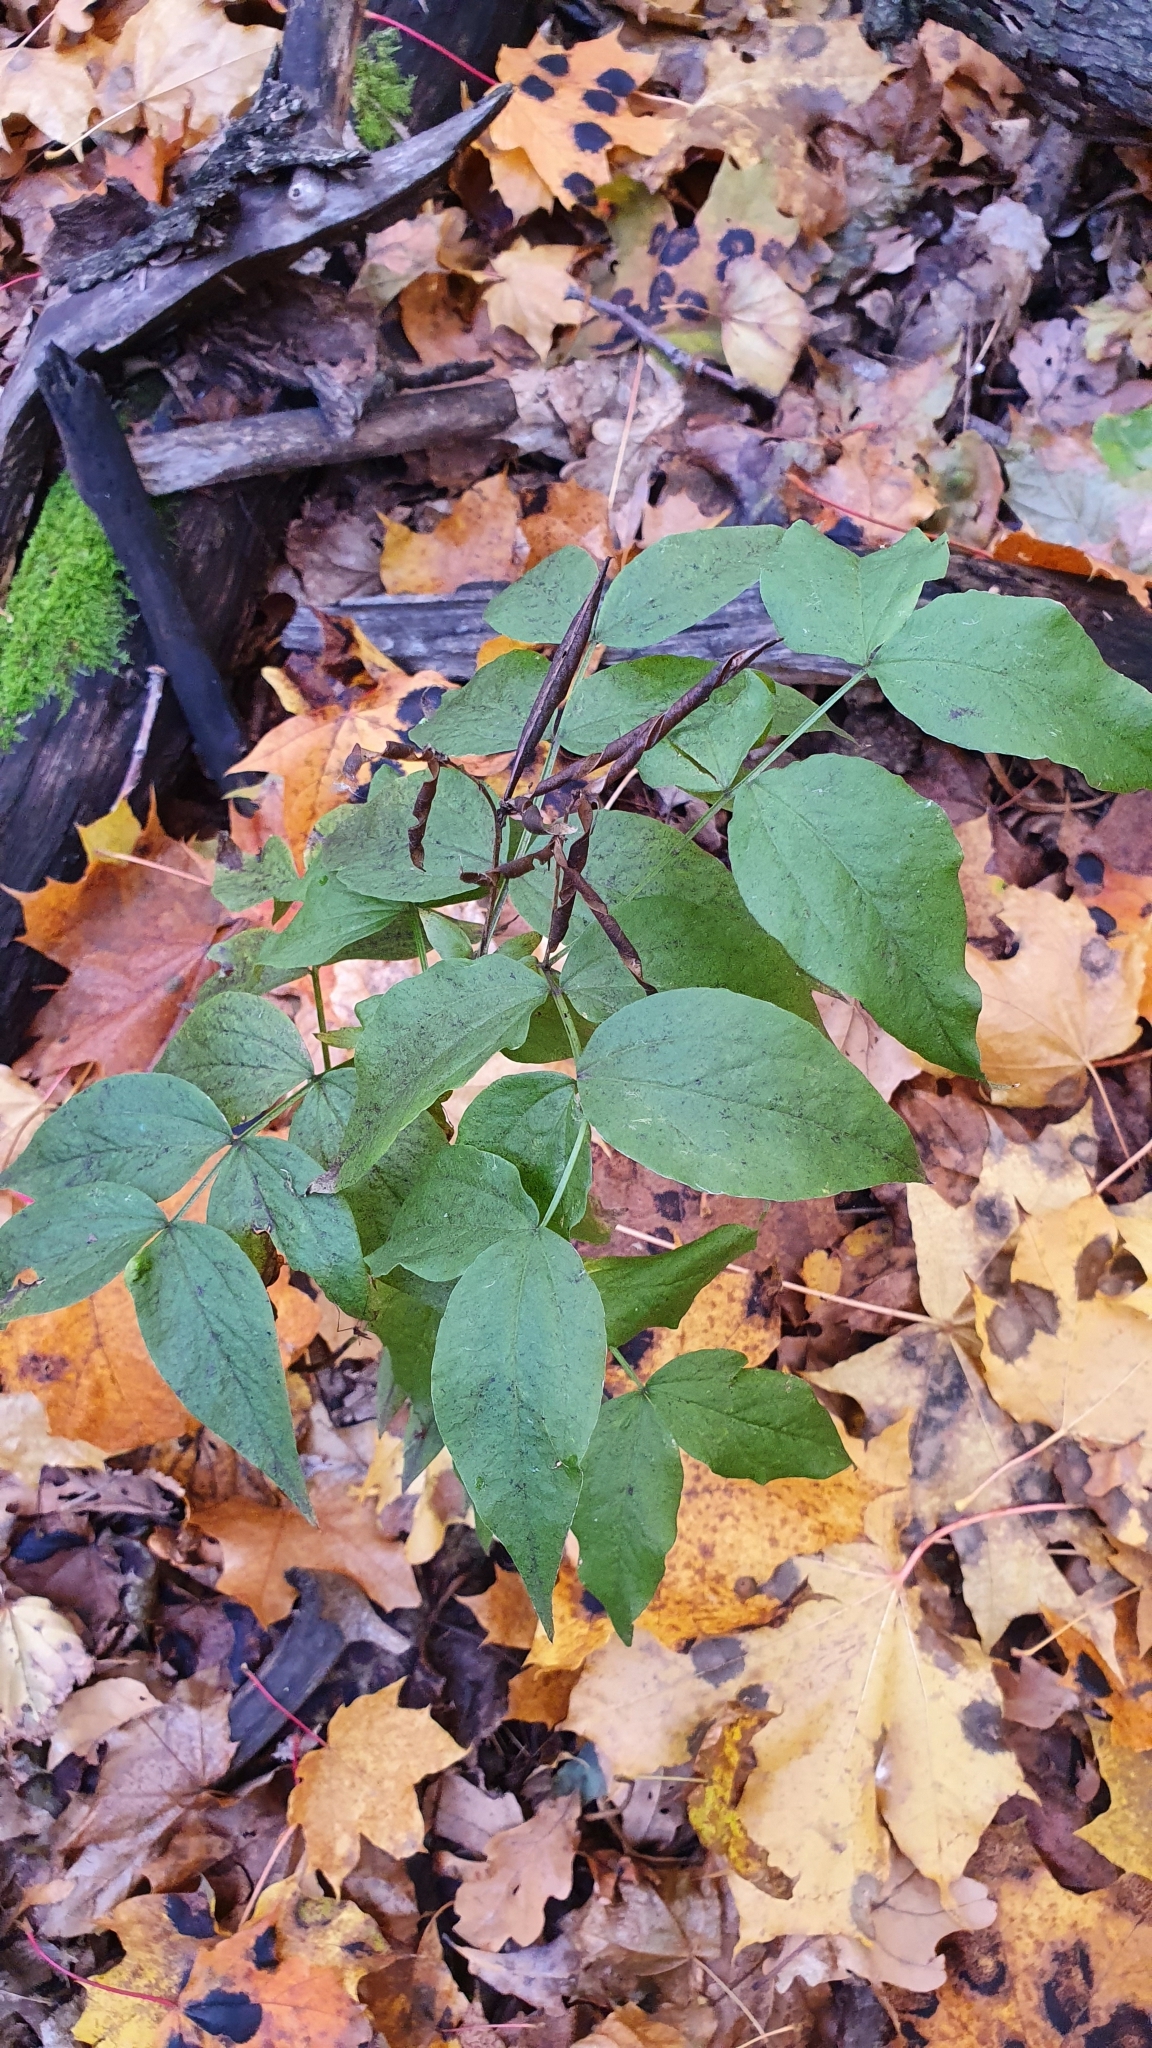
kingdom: Plantae
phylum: Tracheophyta
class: Magnoliopsida
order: Fabales
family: Fabaceae
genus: Lathyrus
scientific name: Lathyrus vernus
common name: Spring pea
